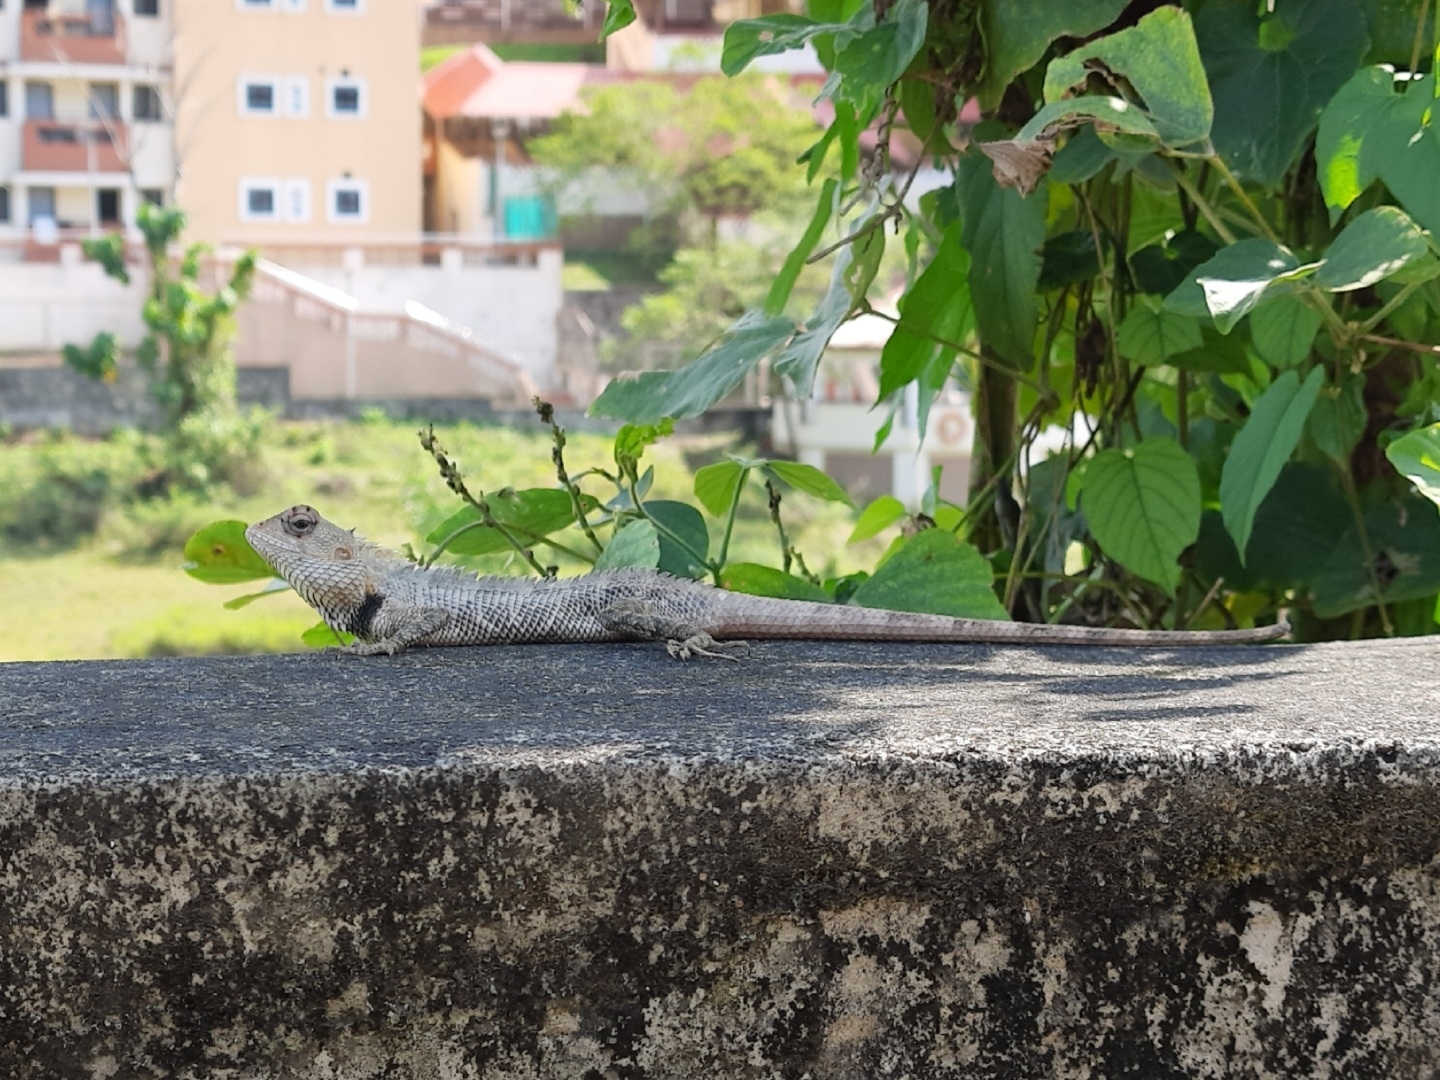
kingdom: Animalia
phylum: Chordata
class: Squamata
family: Agamidae
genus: Calotes
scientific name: Calotes versicolor
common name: Oriental garden lizard
